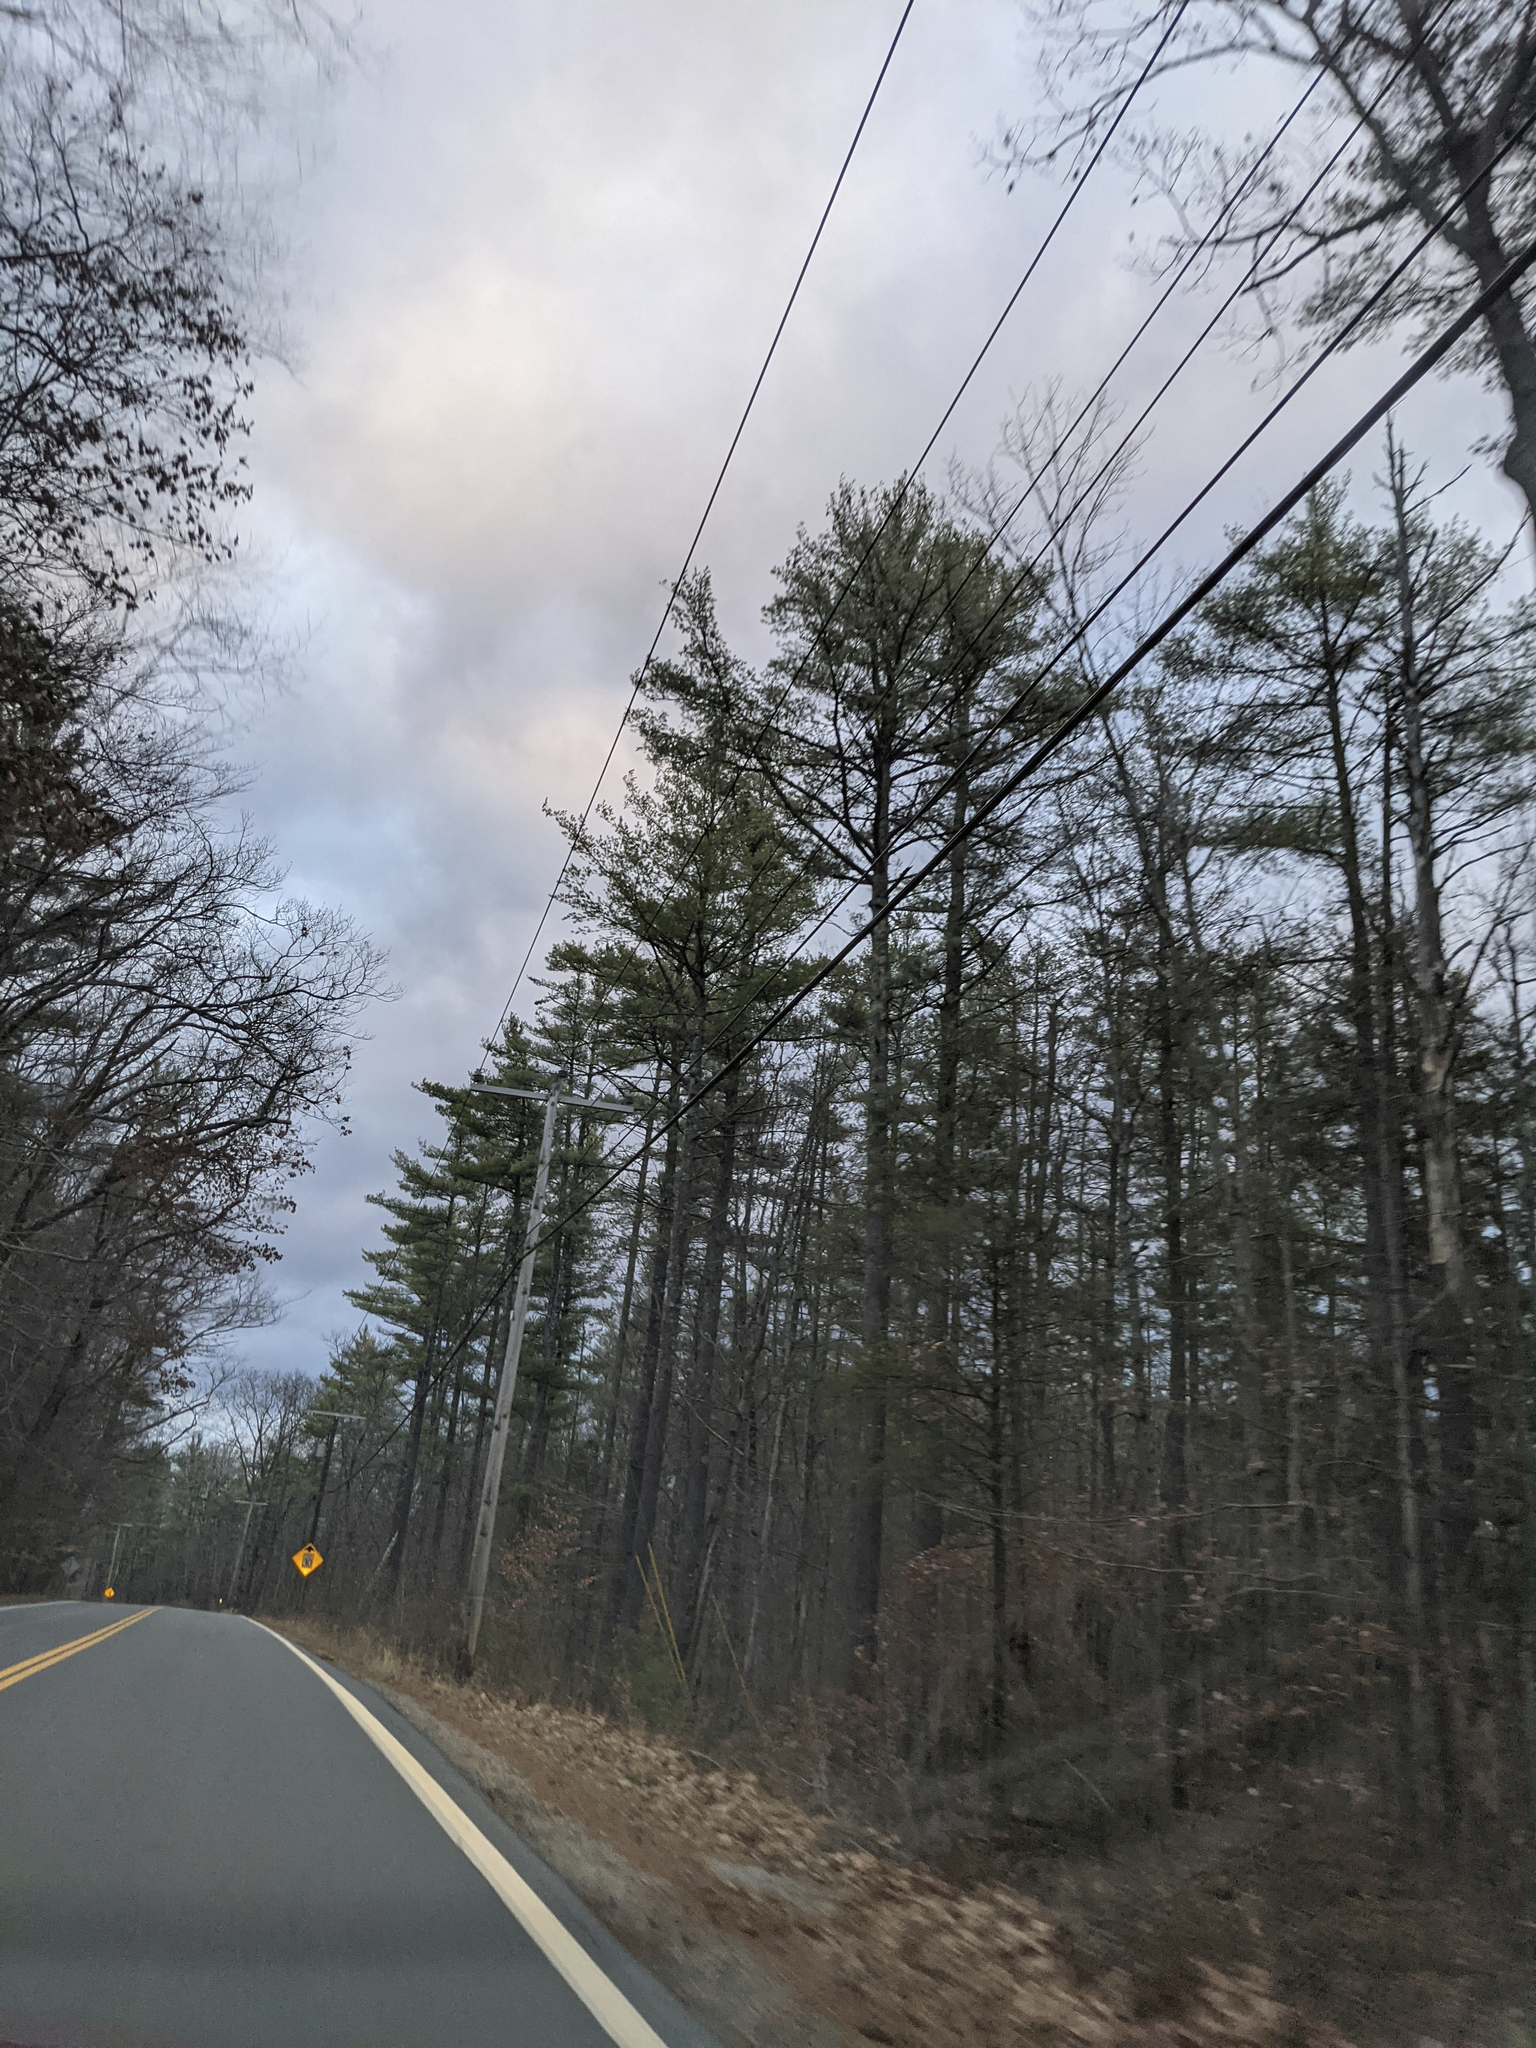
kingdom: Plantae
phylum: Tracheophyta
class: Pinopsida
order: Pinales
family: Pinaceae
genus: Pinus
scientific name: Pinus strobus
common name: Weymouth pine
